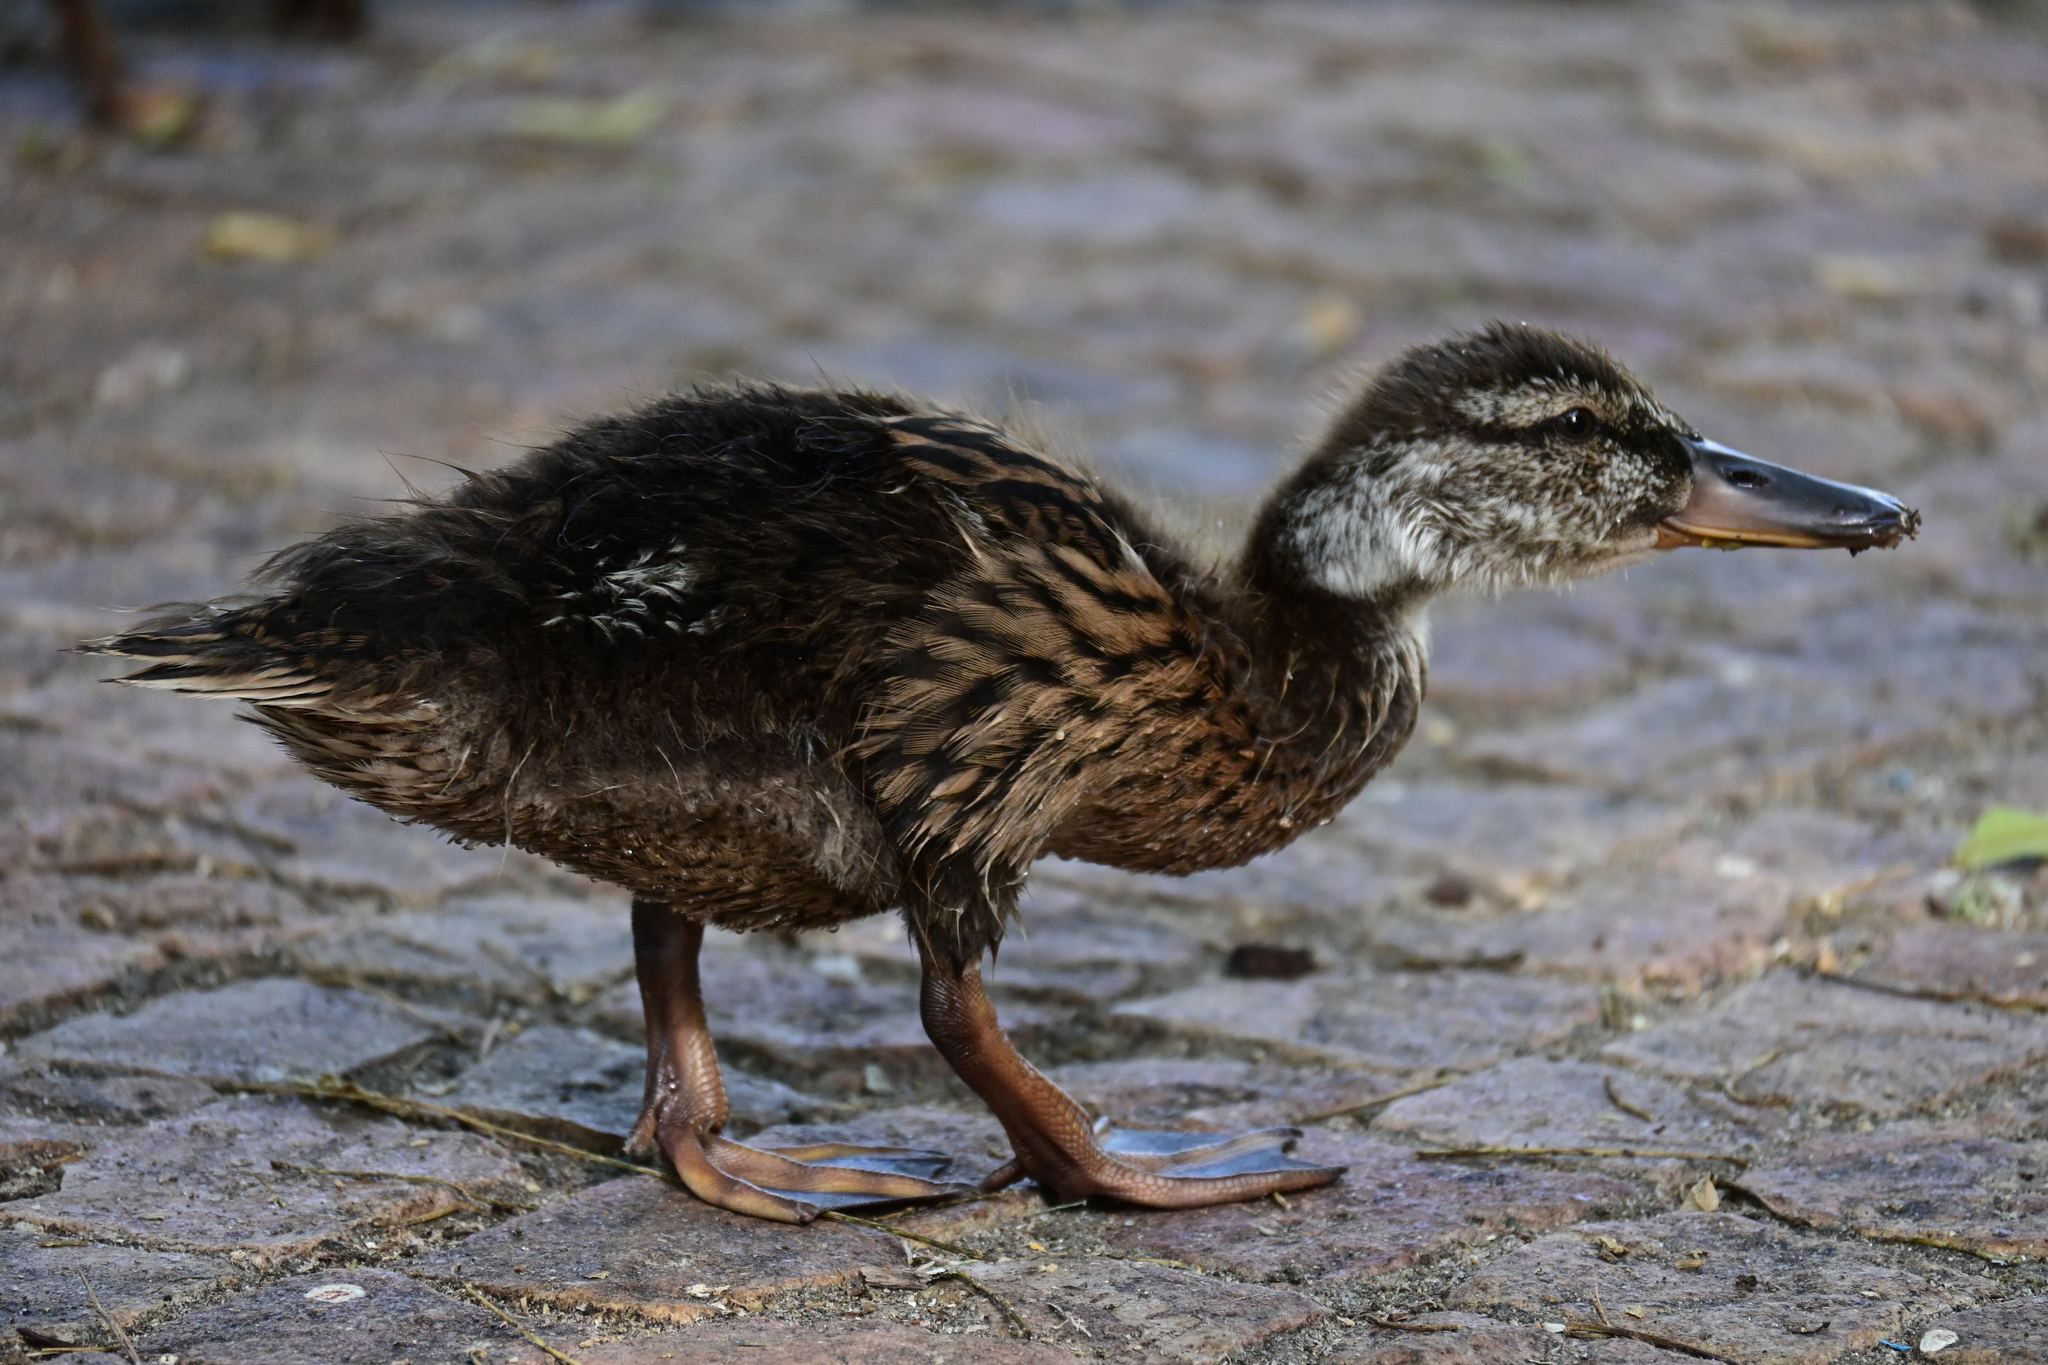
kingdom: Animalia
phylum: Chordata
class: Aves
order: Anseriformes
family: Anatidae
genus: Anas
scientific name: Anas platyrhynchos
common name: Mallard
